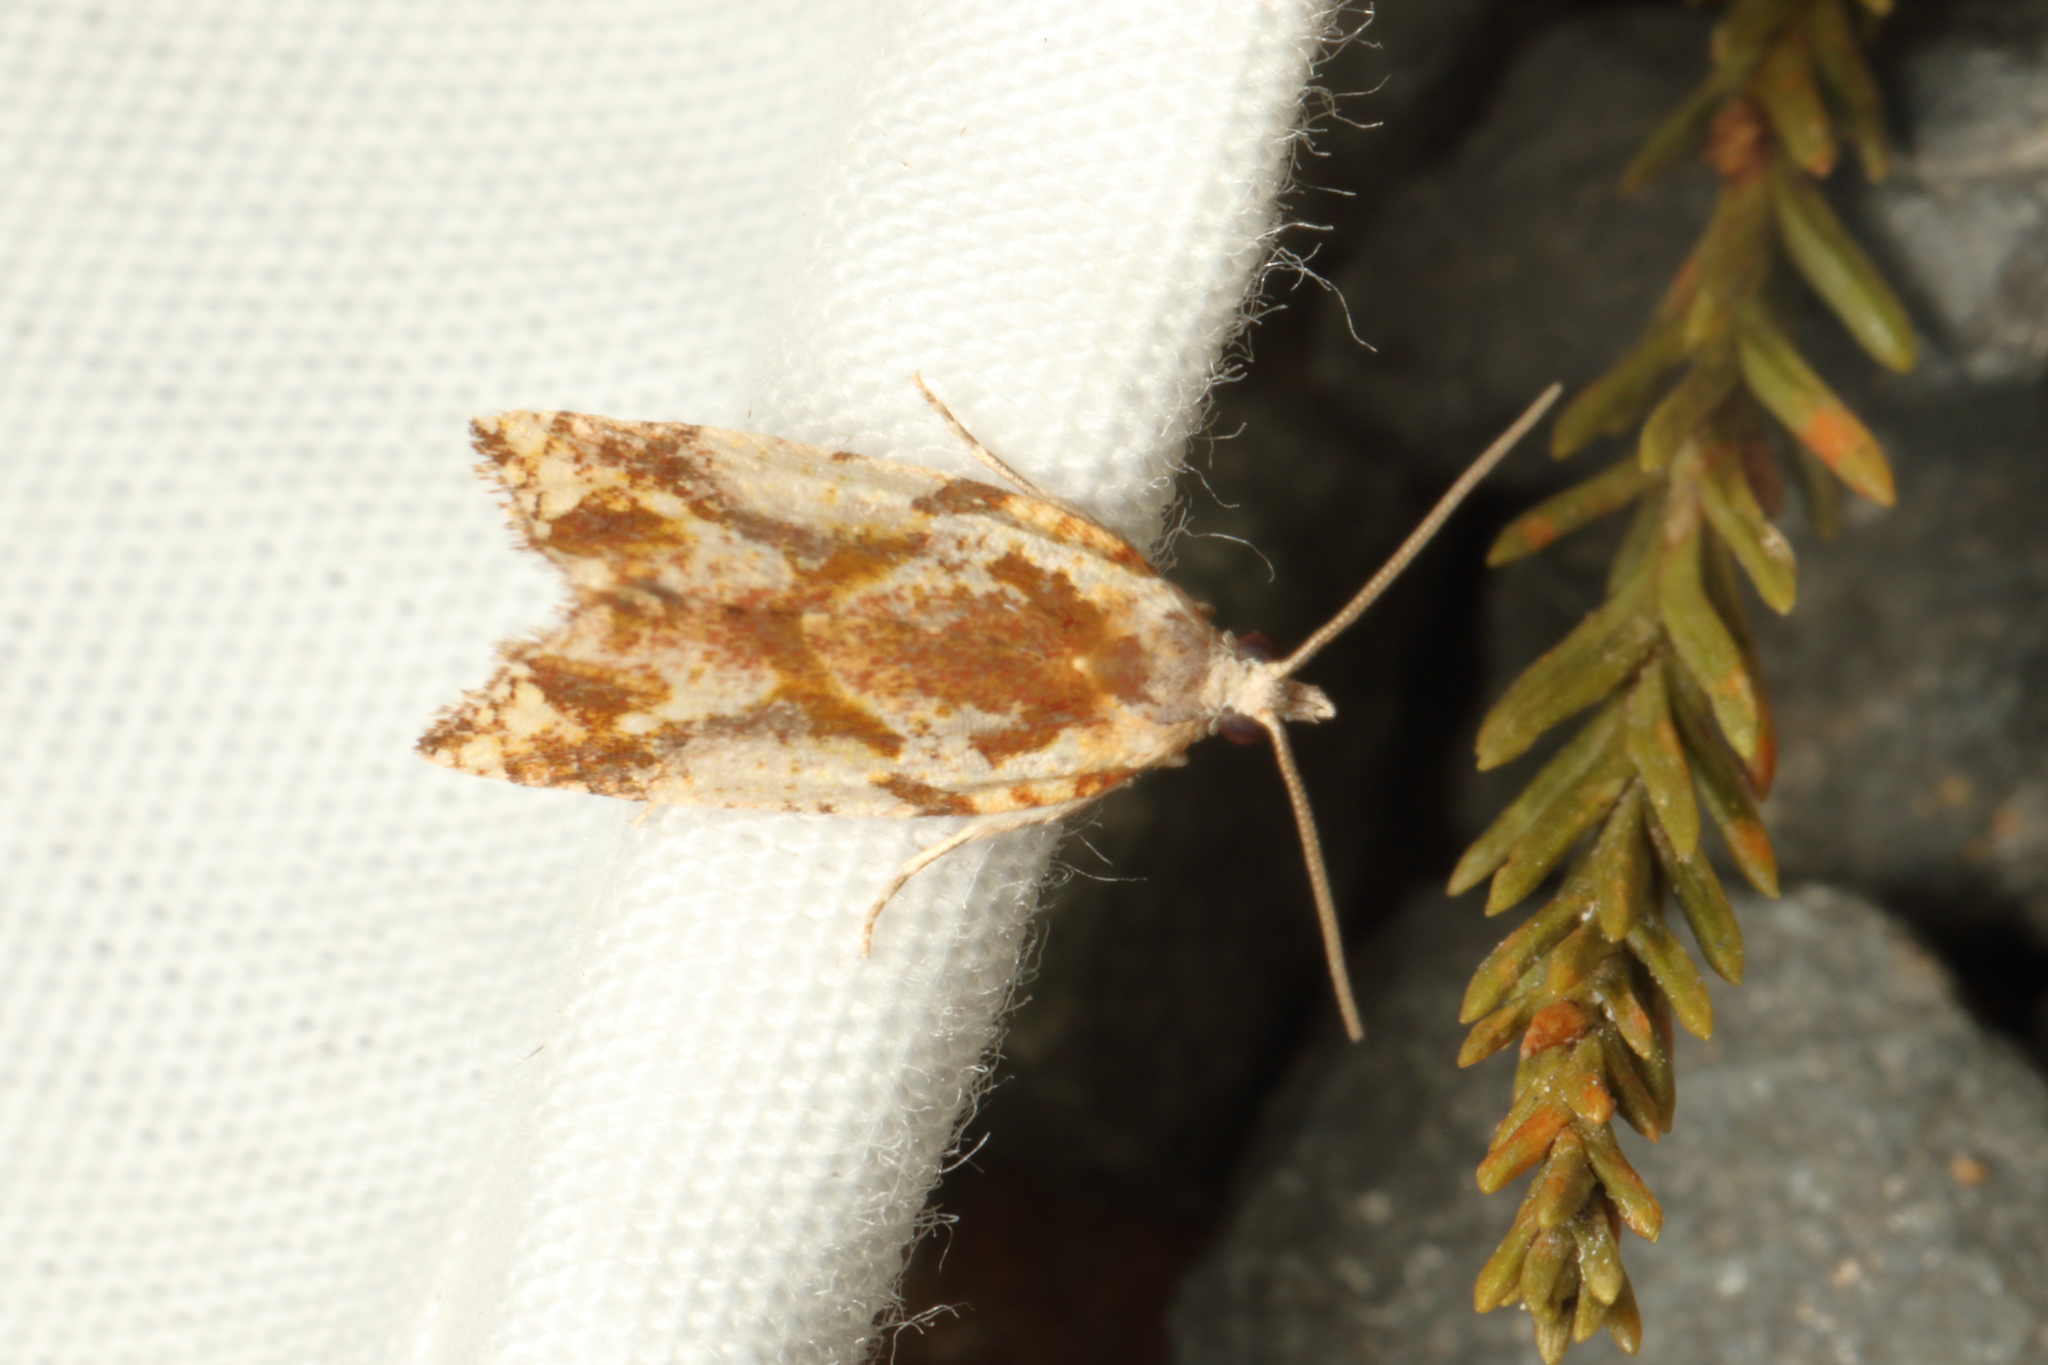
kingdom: Animalia
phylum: Arthropoda
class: Insecta
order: Lepidoptera
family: Tortricidae
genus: Pyrgotis
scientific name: Pyrgotis plagiatana
